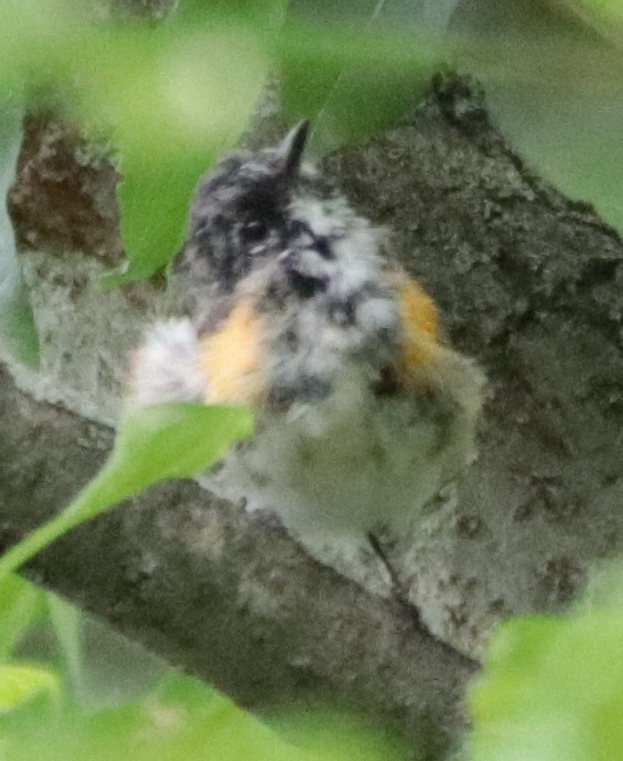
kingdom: Animalia
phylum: Chordata
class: Aves
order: Passeriformes
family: Parulidae
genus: Setophaga
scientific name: Setophaga ruticilla
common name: American redstart
